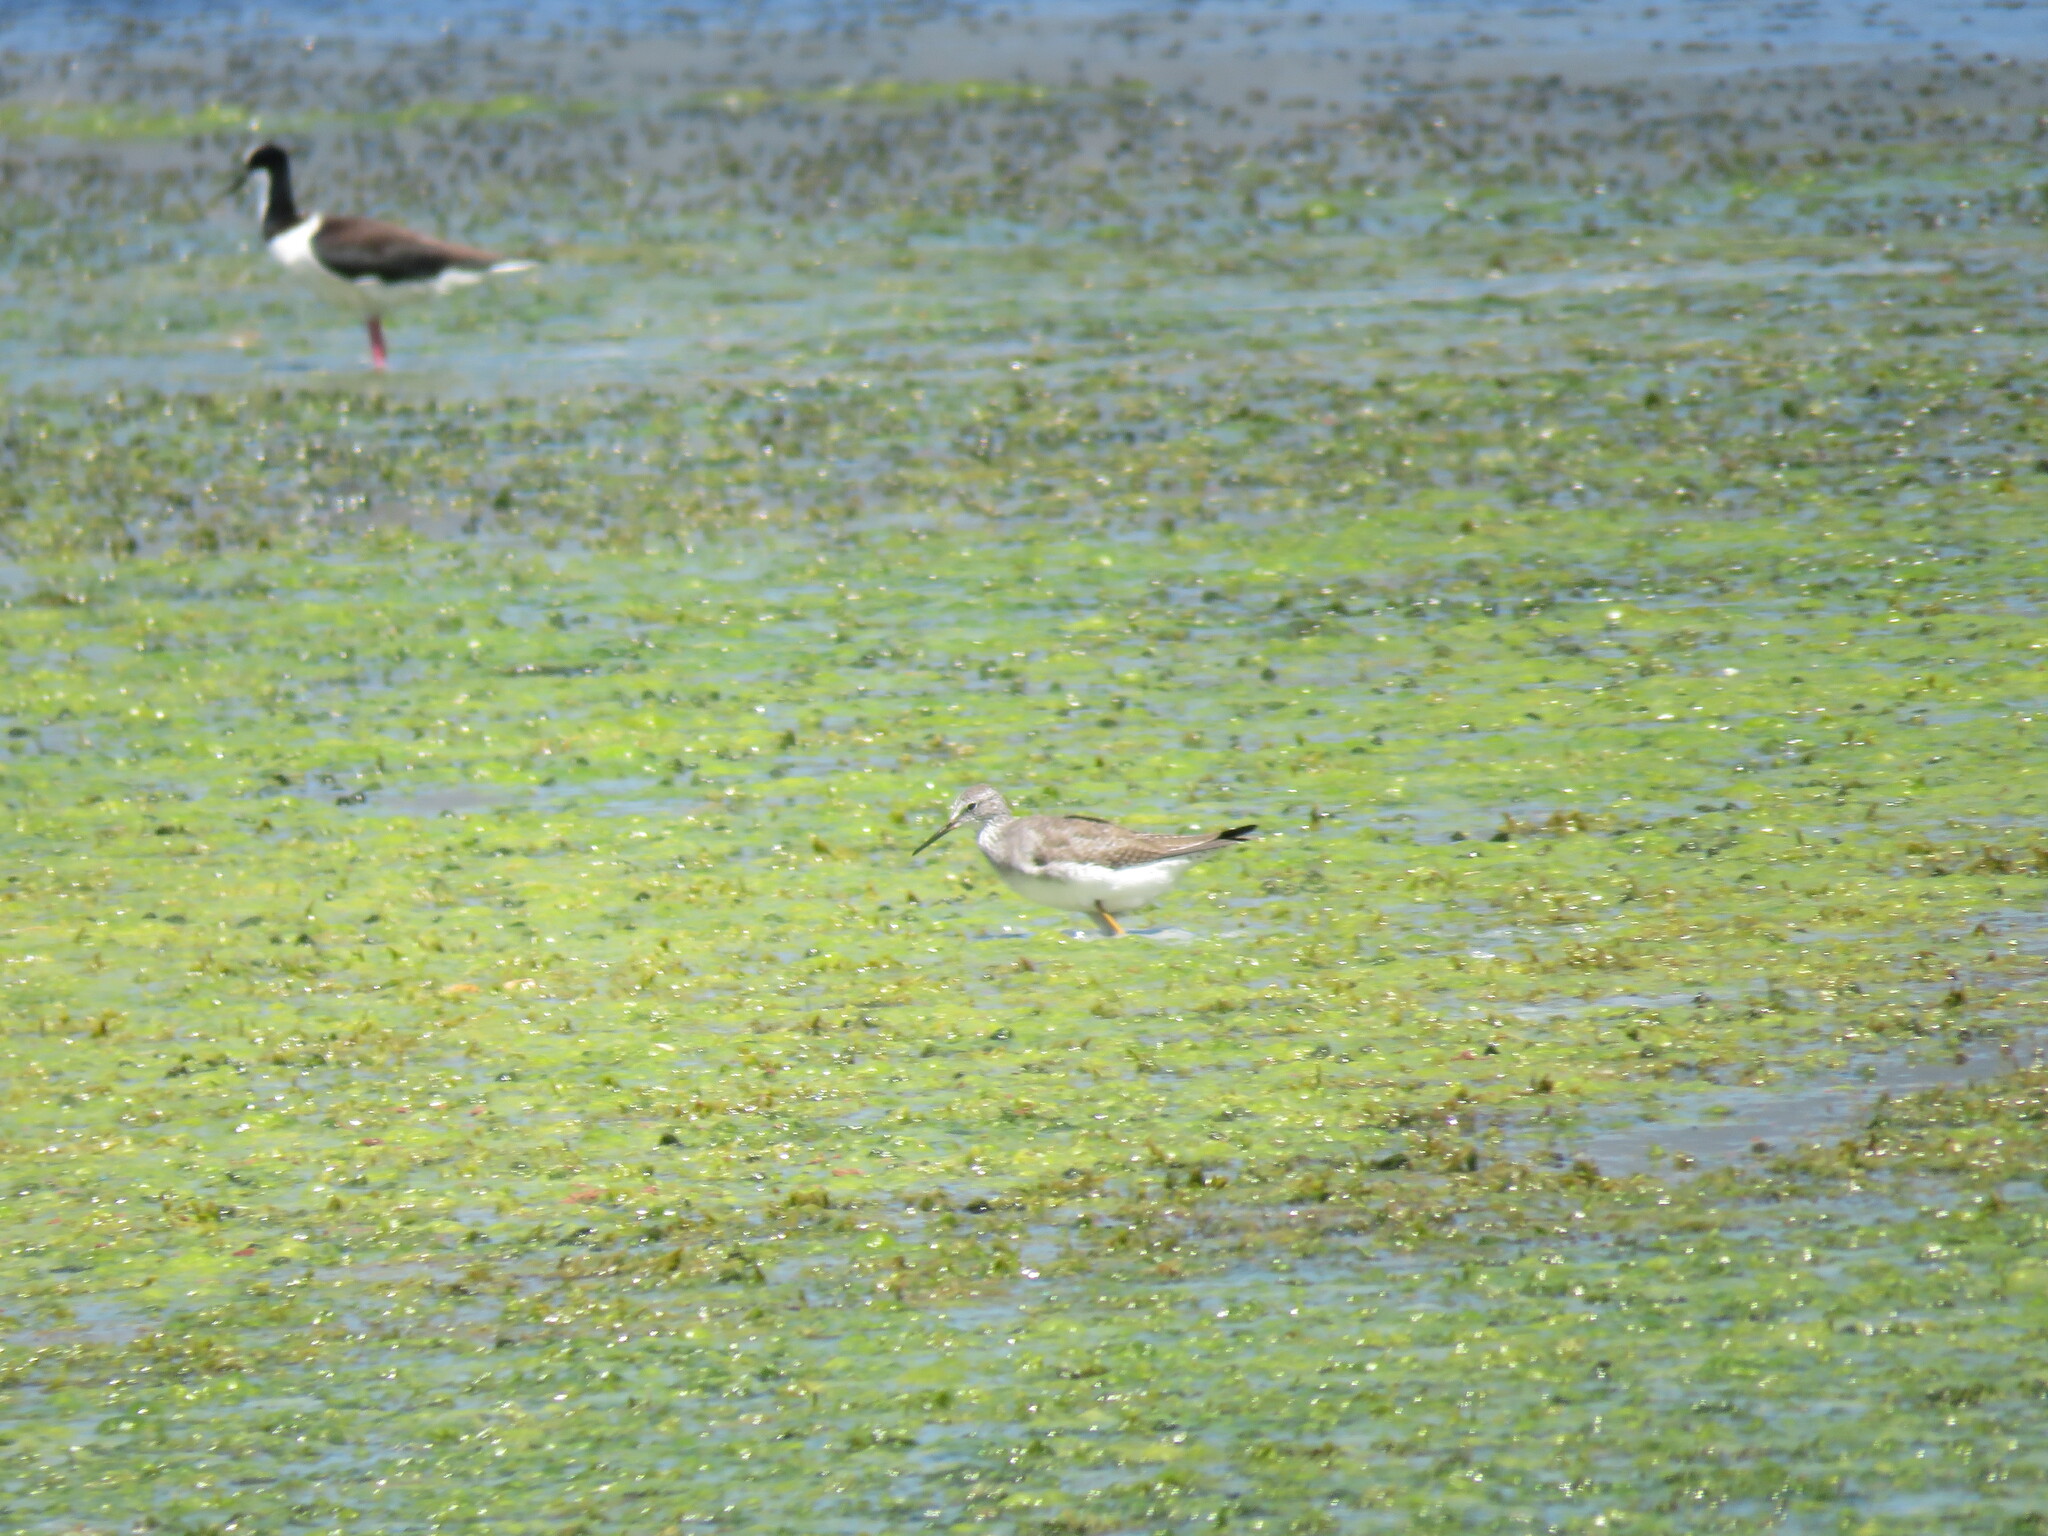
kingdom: Animalia
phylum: Chordata
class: Aves
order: Charadriiformes
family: Scolopacidae
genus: Tringa
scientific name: Tringa flavipes
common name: Lesser yellowlegs
